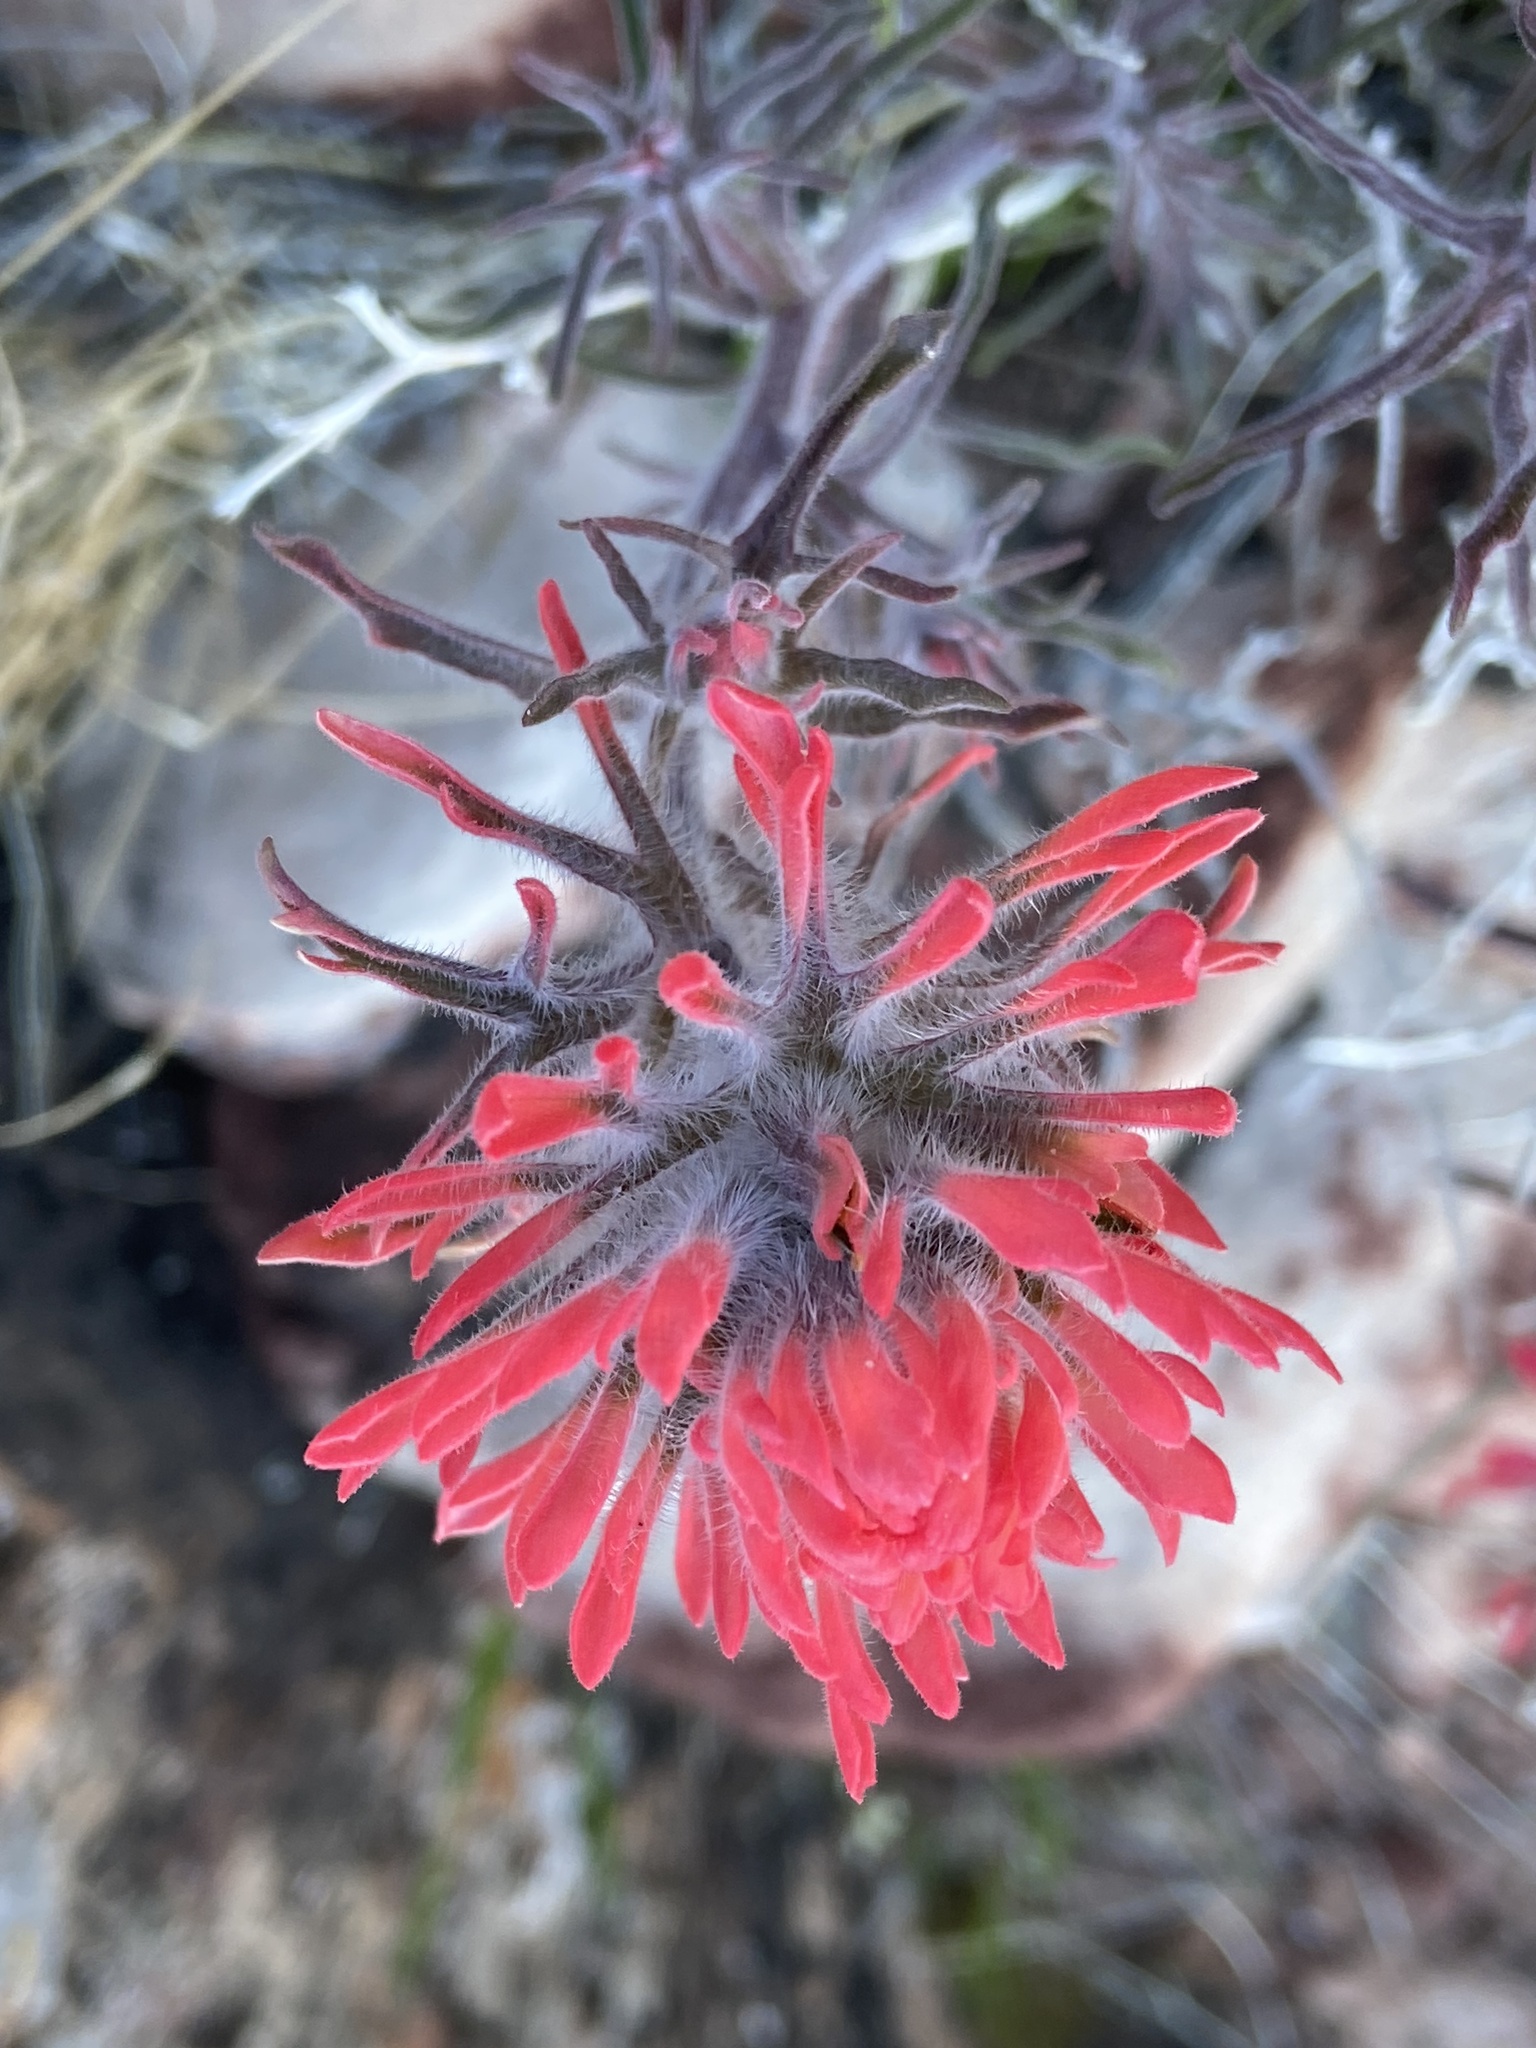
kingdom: Plantae
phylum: Tracheophyta
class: Magnoliopsida
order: Lamiales
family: Orobanchaceae
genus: Castilleja
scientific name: Castilleja chromosa
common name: Desert paintbrush
